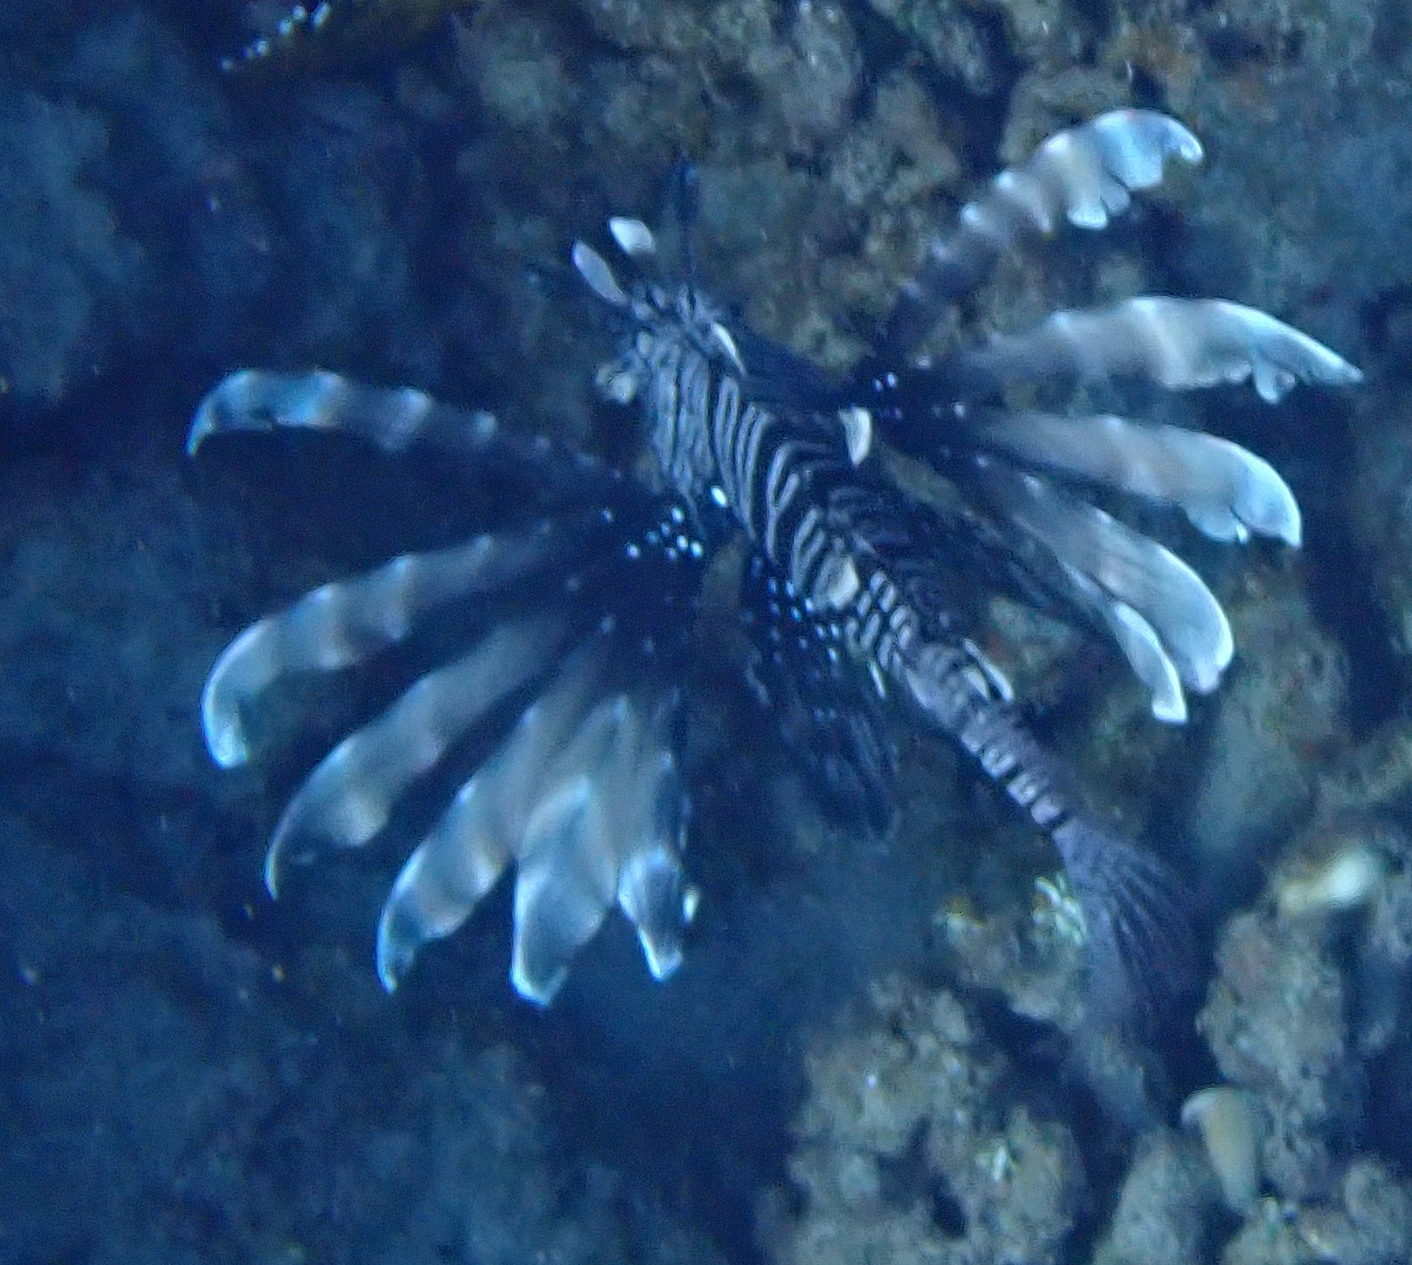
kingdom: Animalia
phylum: Chordata
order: Scorpaeniformes
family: Scorpaenidae
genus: Pterois
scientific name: Pterois miles
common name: Devil firefish
